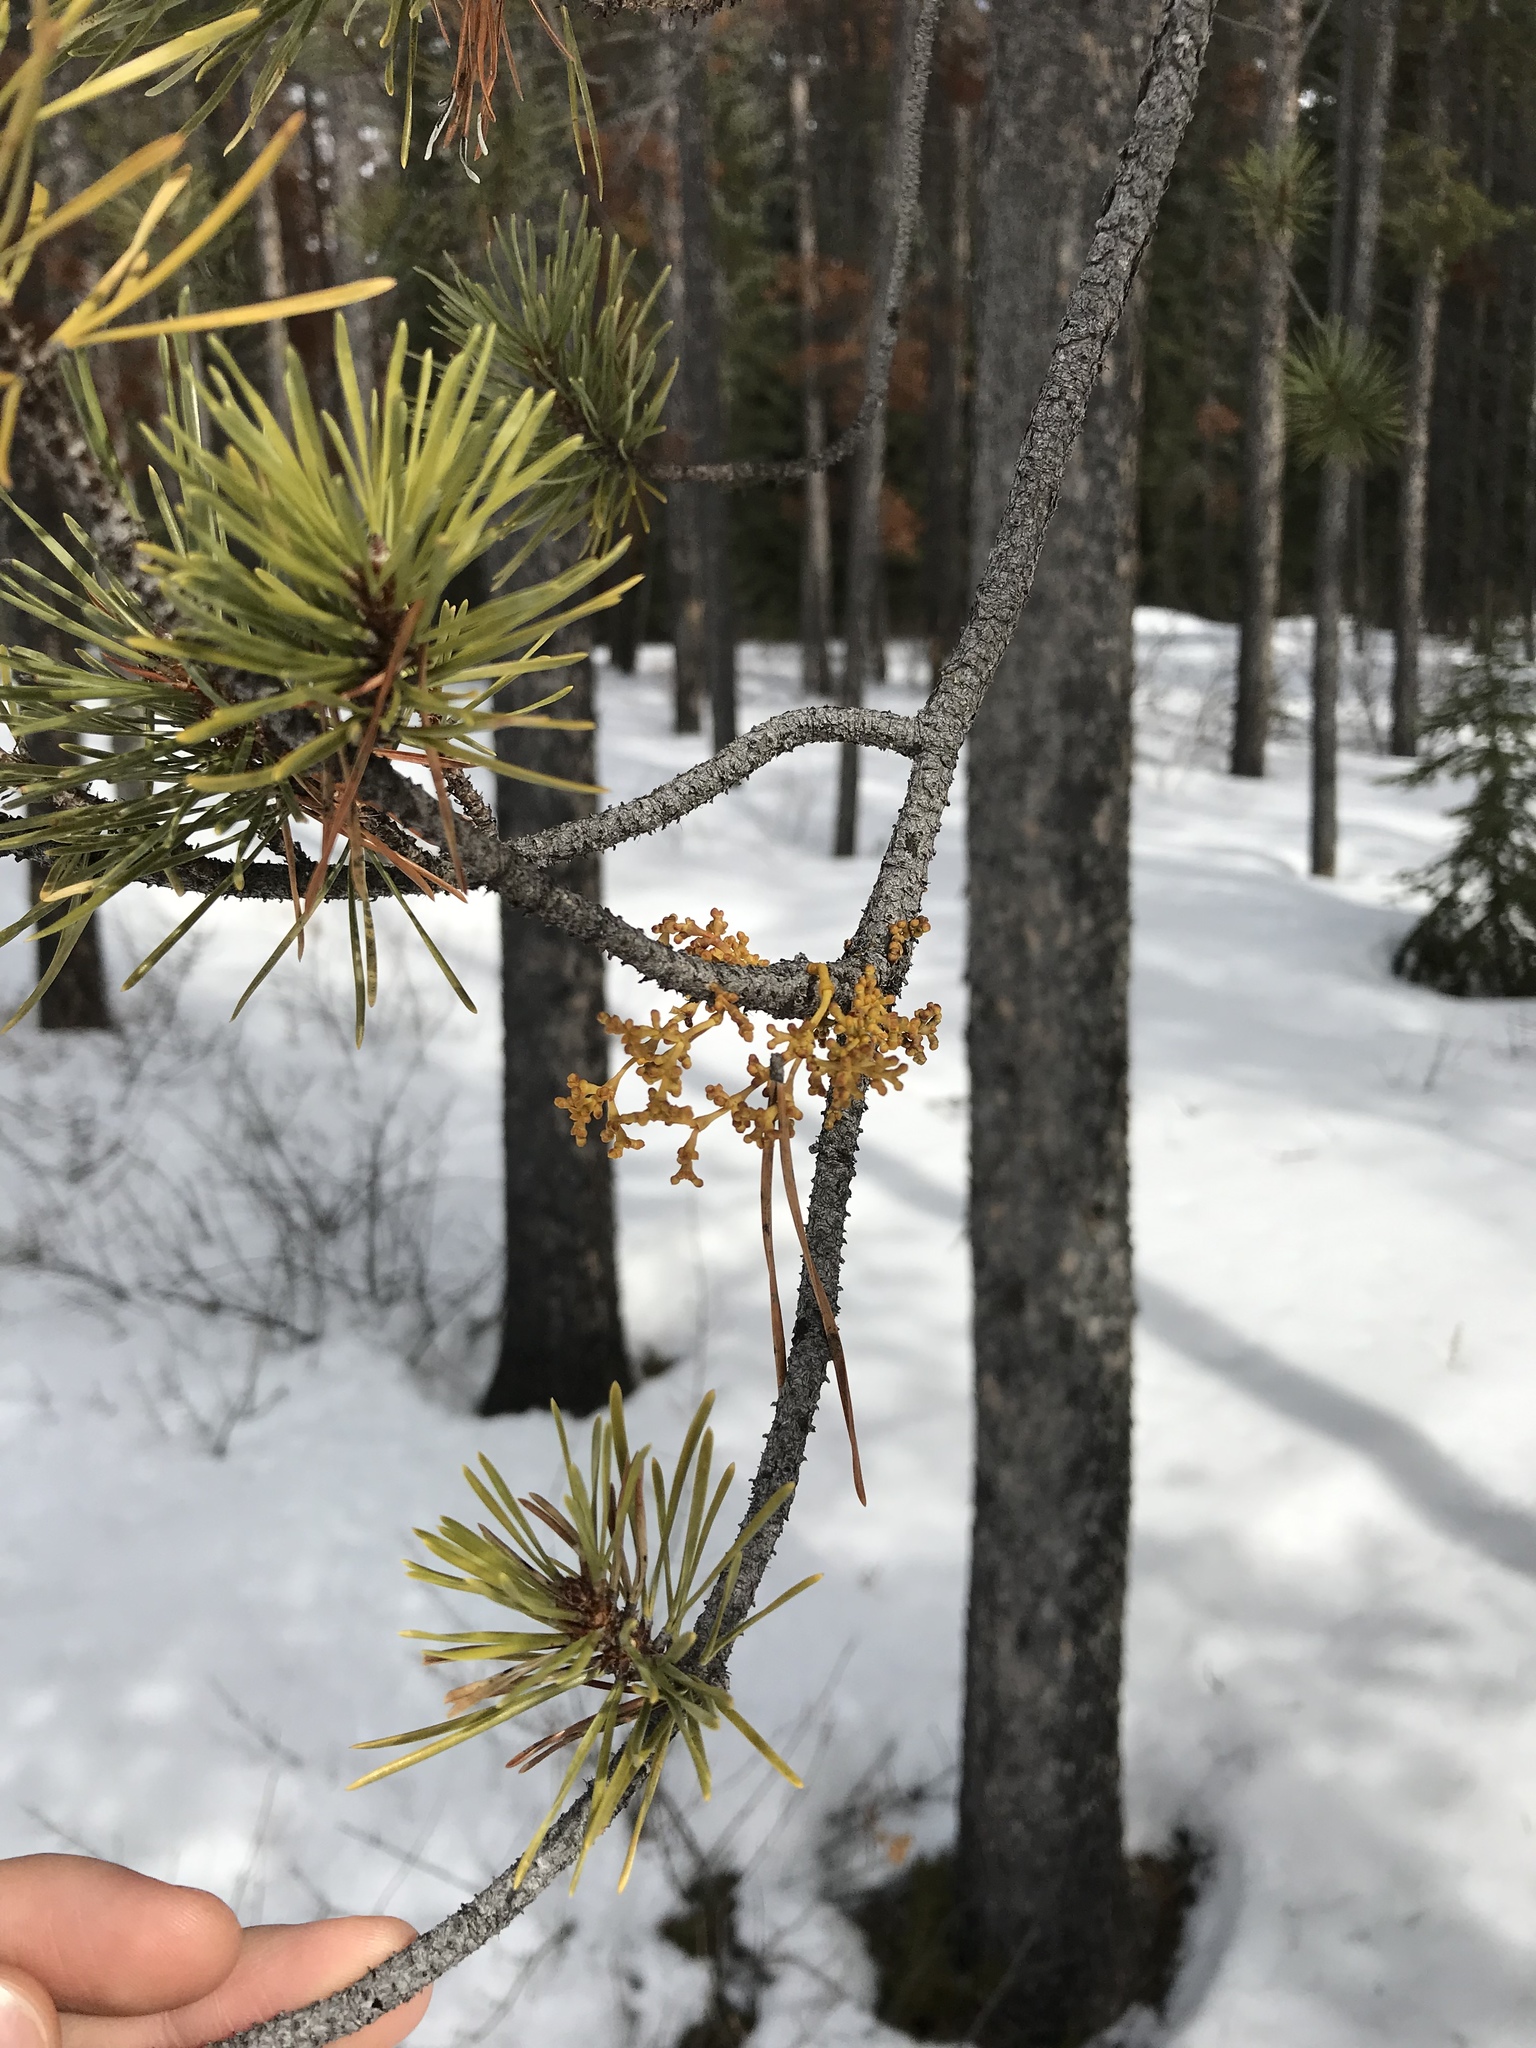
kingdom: Plantae
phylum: Tracheophyta
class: Magnoliopsida
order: Santalales
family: Viscaceae
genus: Arceuthobium
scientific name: Arceuthobium americanum
